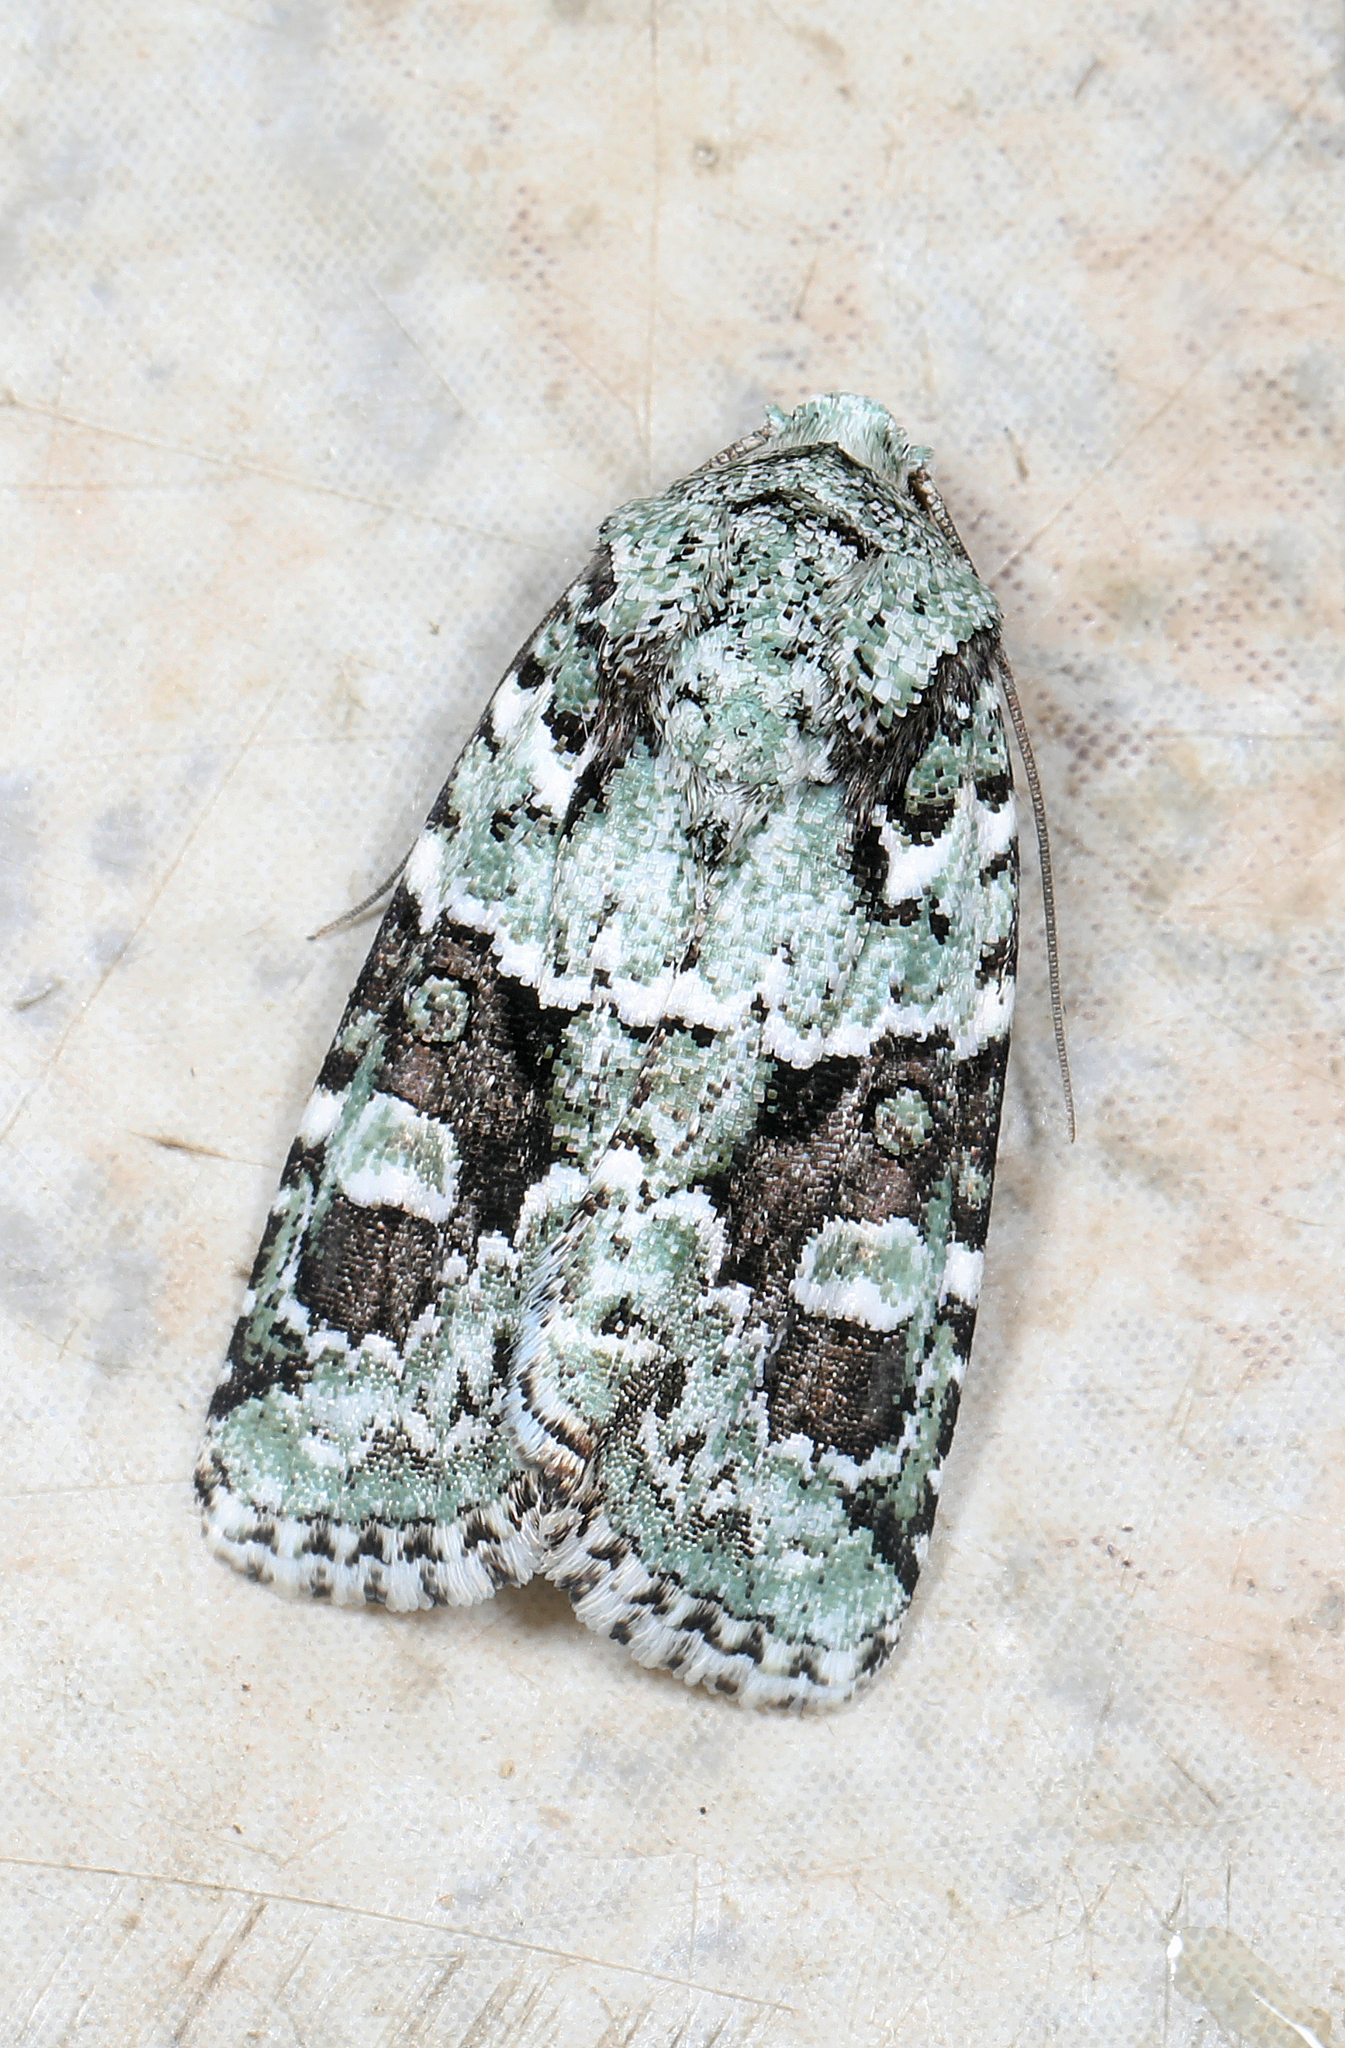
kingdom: Animalia
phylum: Arthropoda
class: Insecta
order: Lepidoptera
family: Noctuidae
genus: Lacinipolia
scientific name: Lacinipolia laudabilis
